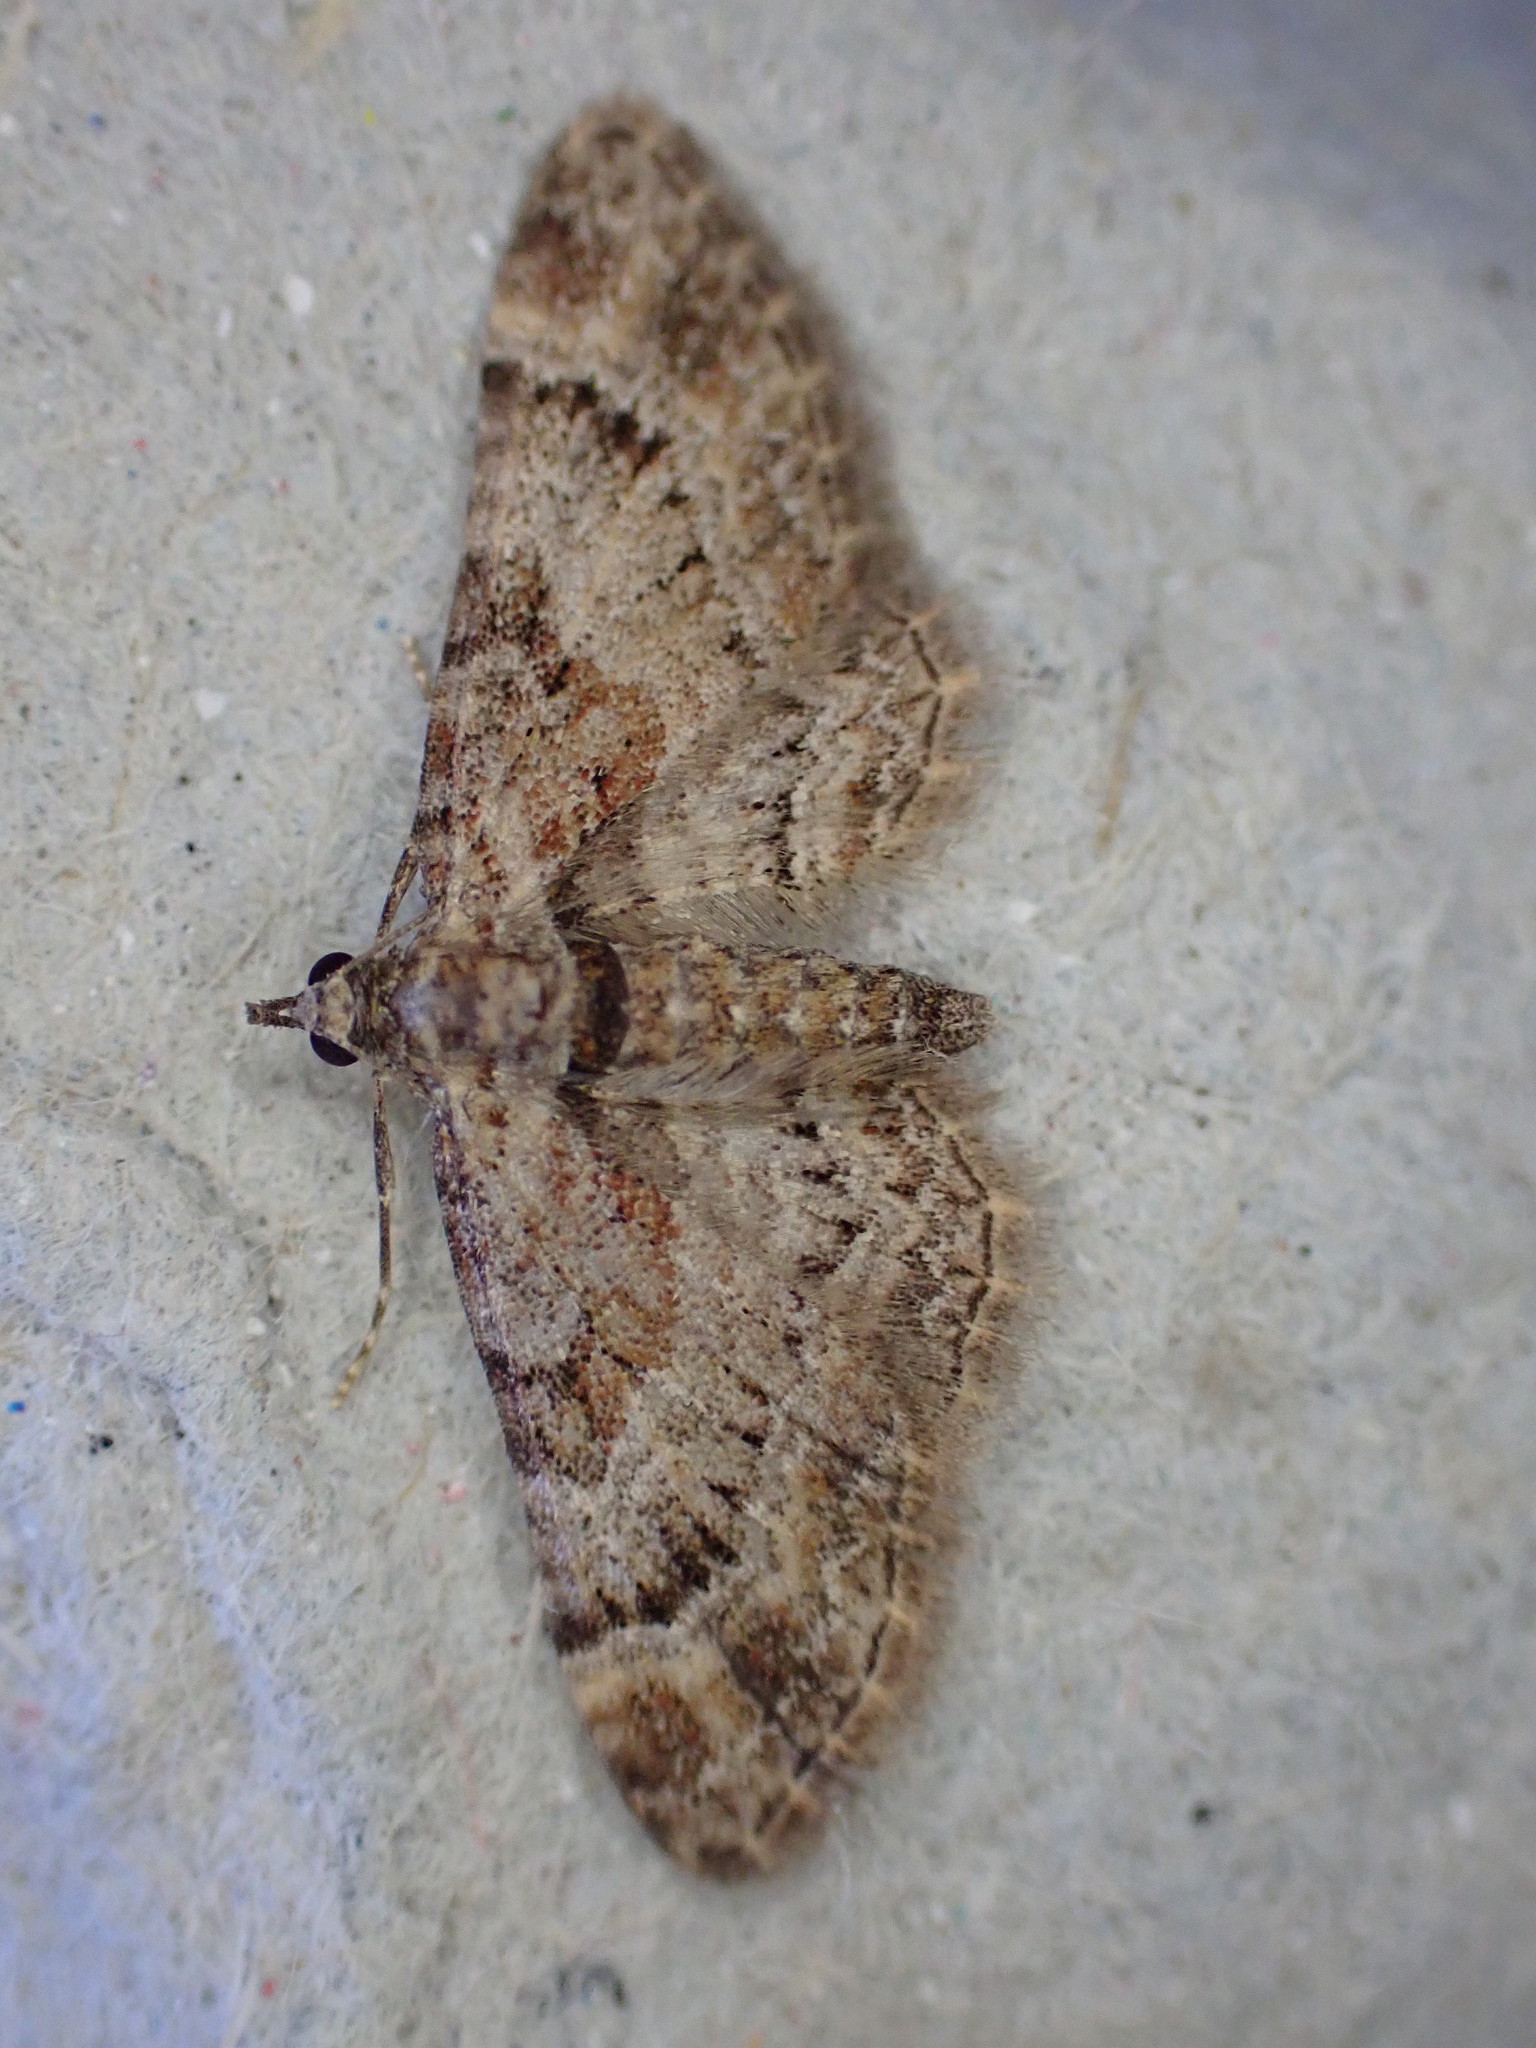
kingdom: Animalia
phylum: Arthropoda
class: Insecta
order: Lepidoptera
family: Geometridae
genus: Gymnoscelis
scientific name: Gymnoscelis rufifasciata
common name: Double-striped pug
